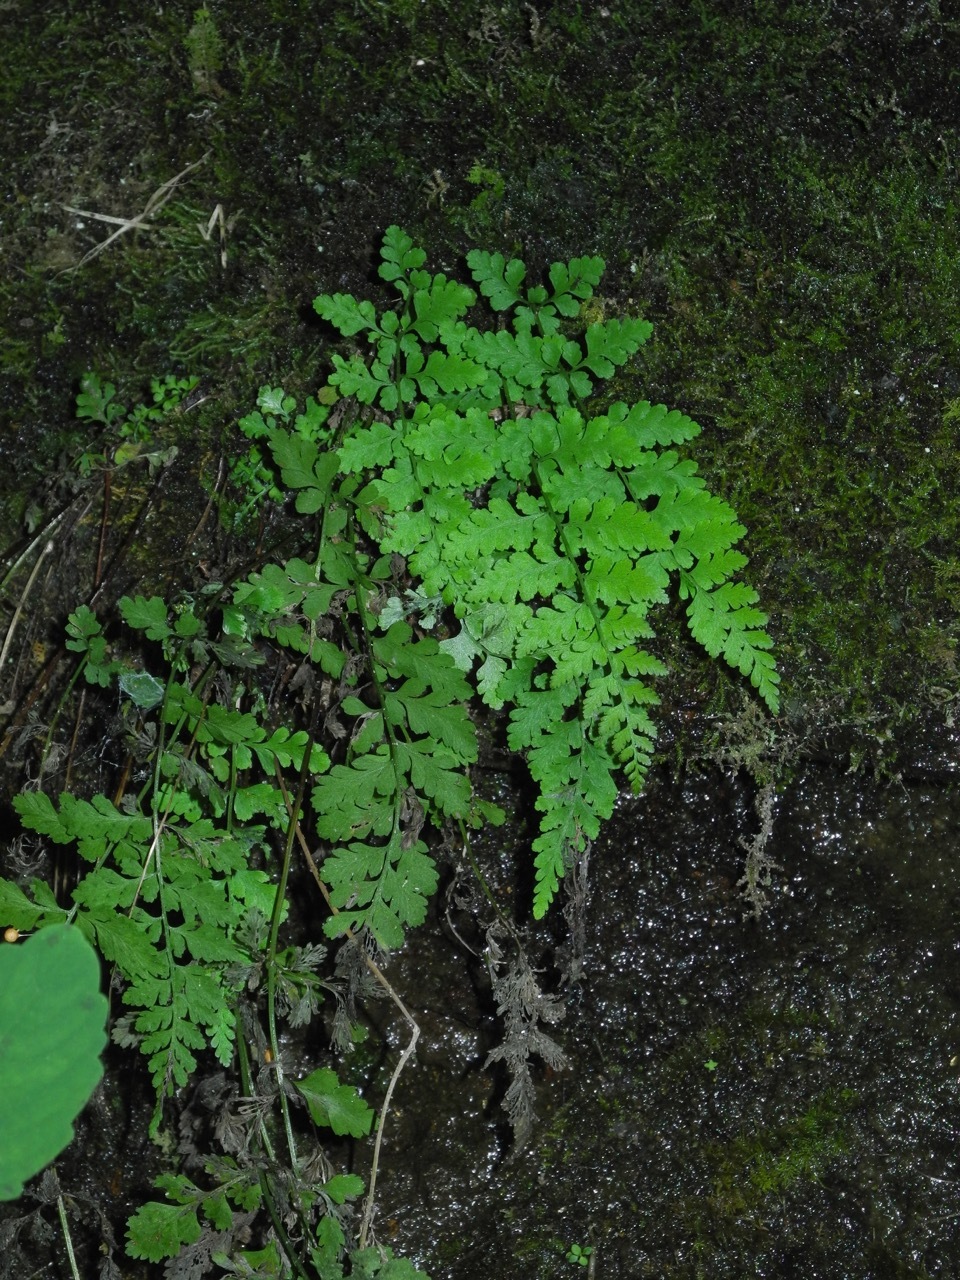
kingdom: Plantae
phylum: Tracheophyta
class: Polypodiopsida
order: Polypodiales
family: Cystopteridaceae
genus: Cystopteris
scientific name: Cystopteris protrusa
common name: Lowland brittle fern
